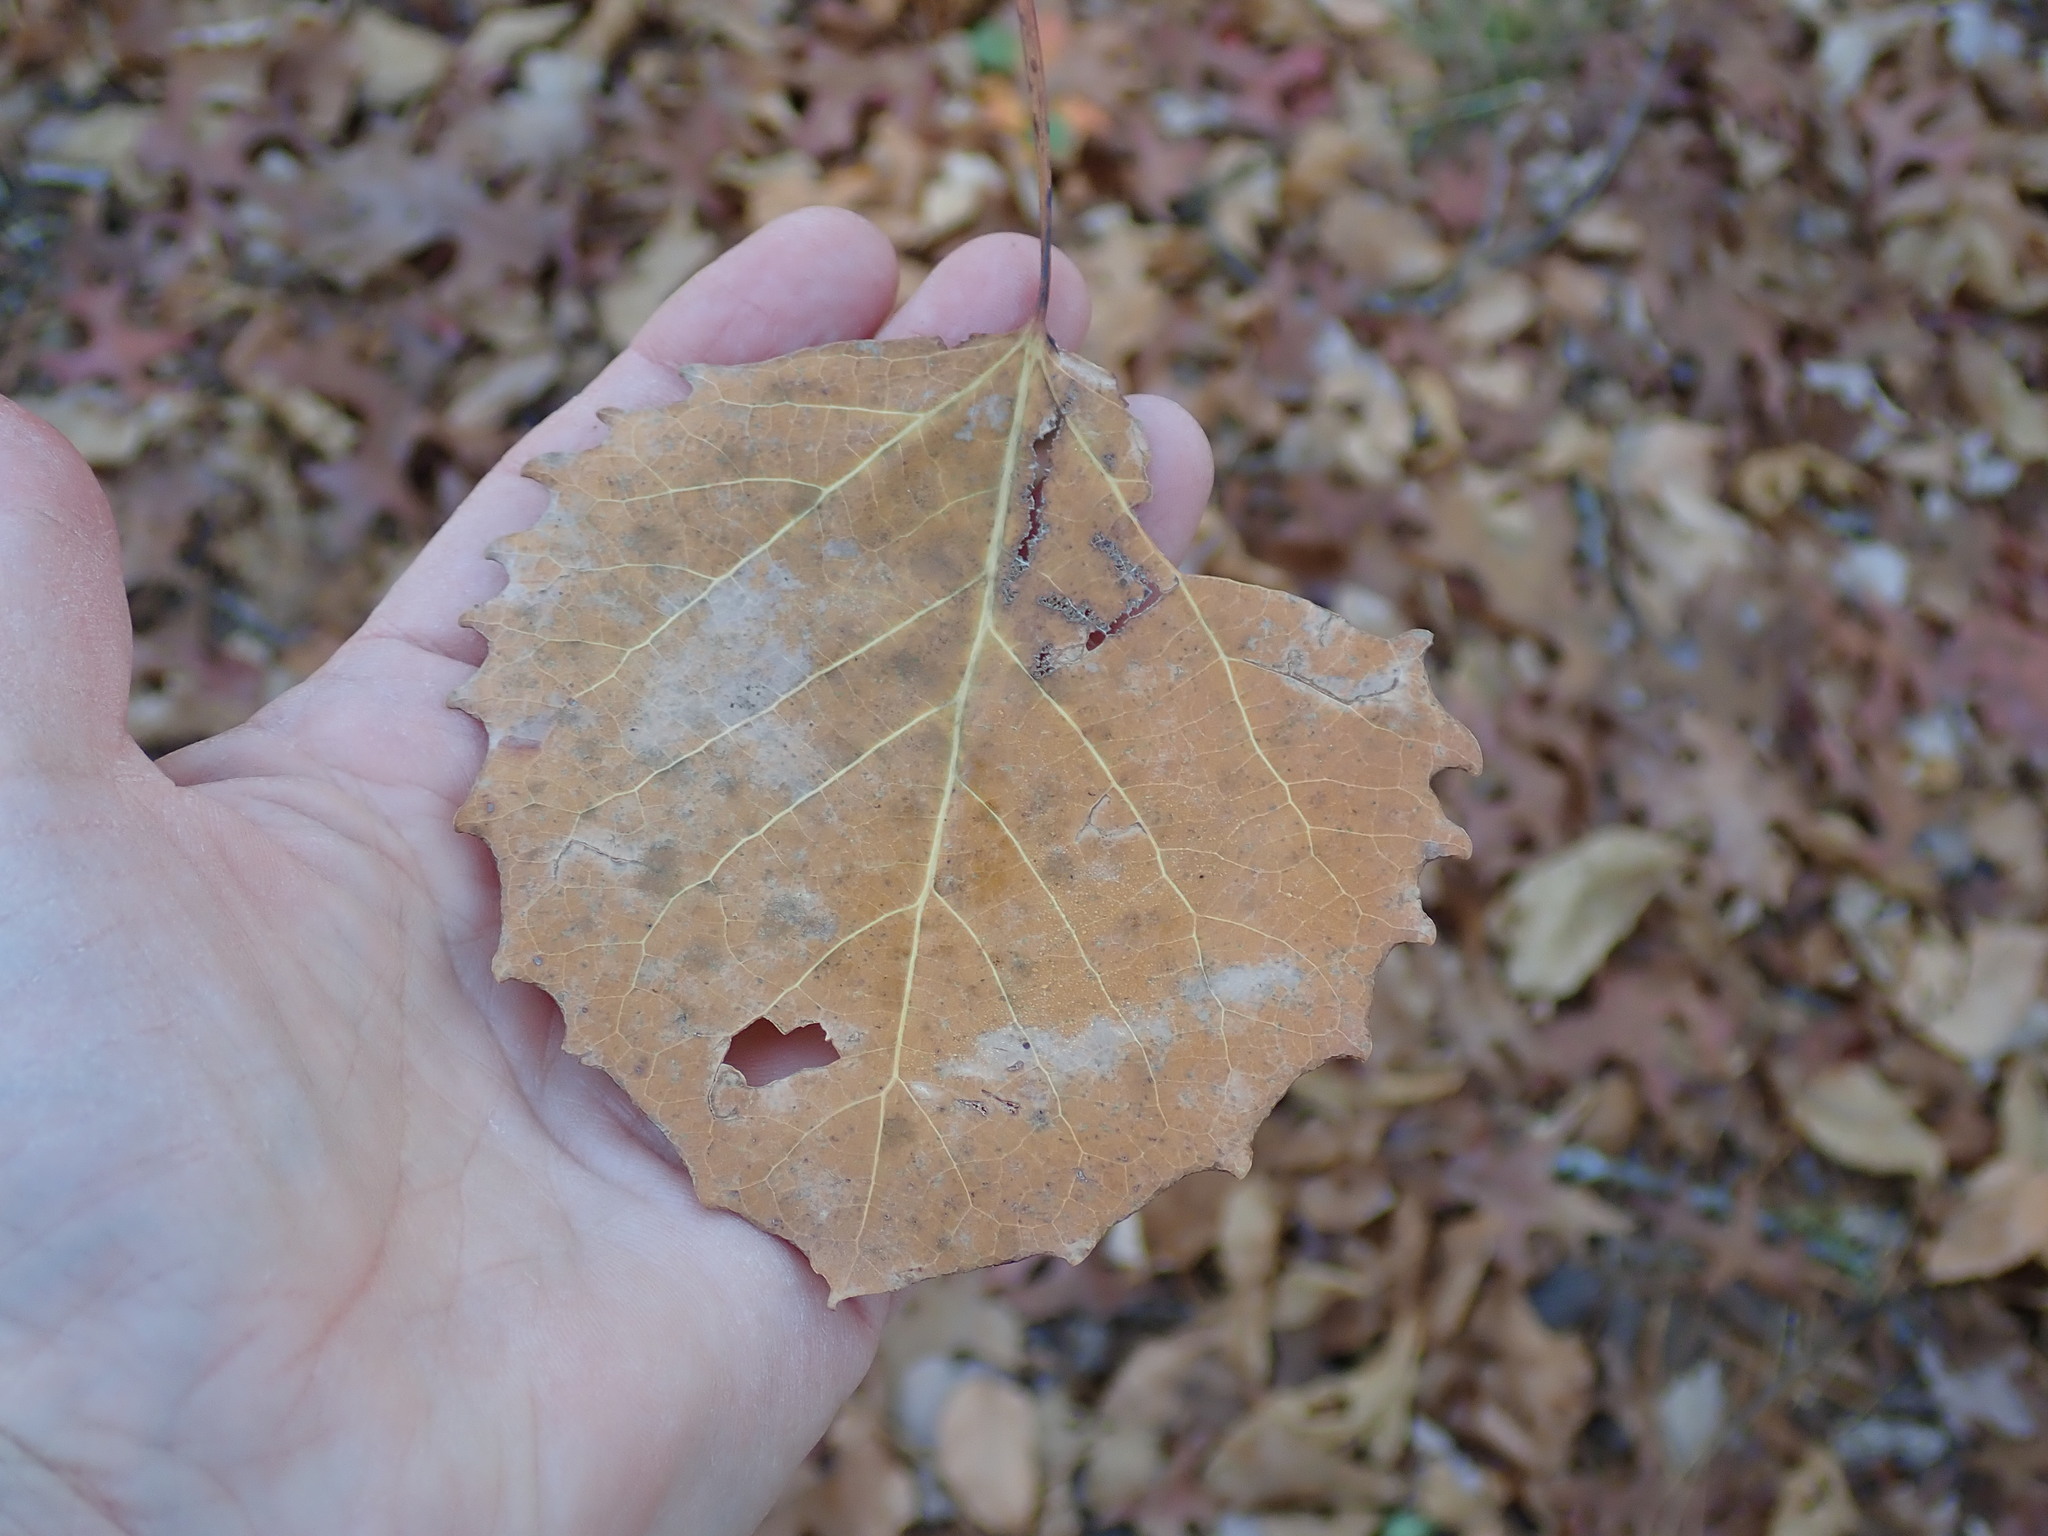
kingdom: Plantae
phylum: Tracheophyta
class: Magnoliopsida
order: Malpighiales
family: Salicaceae
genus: Populus
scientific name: Populus grandidentata
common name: Bigtooth aspen
